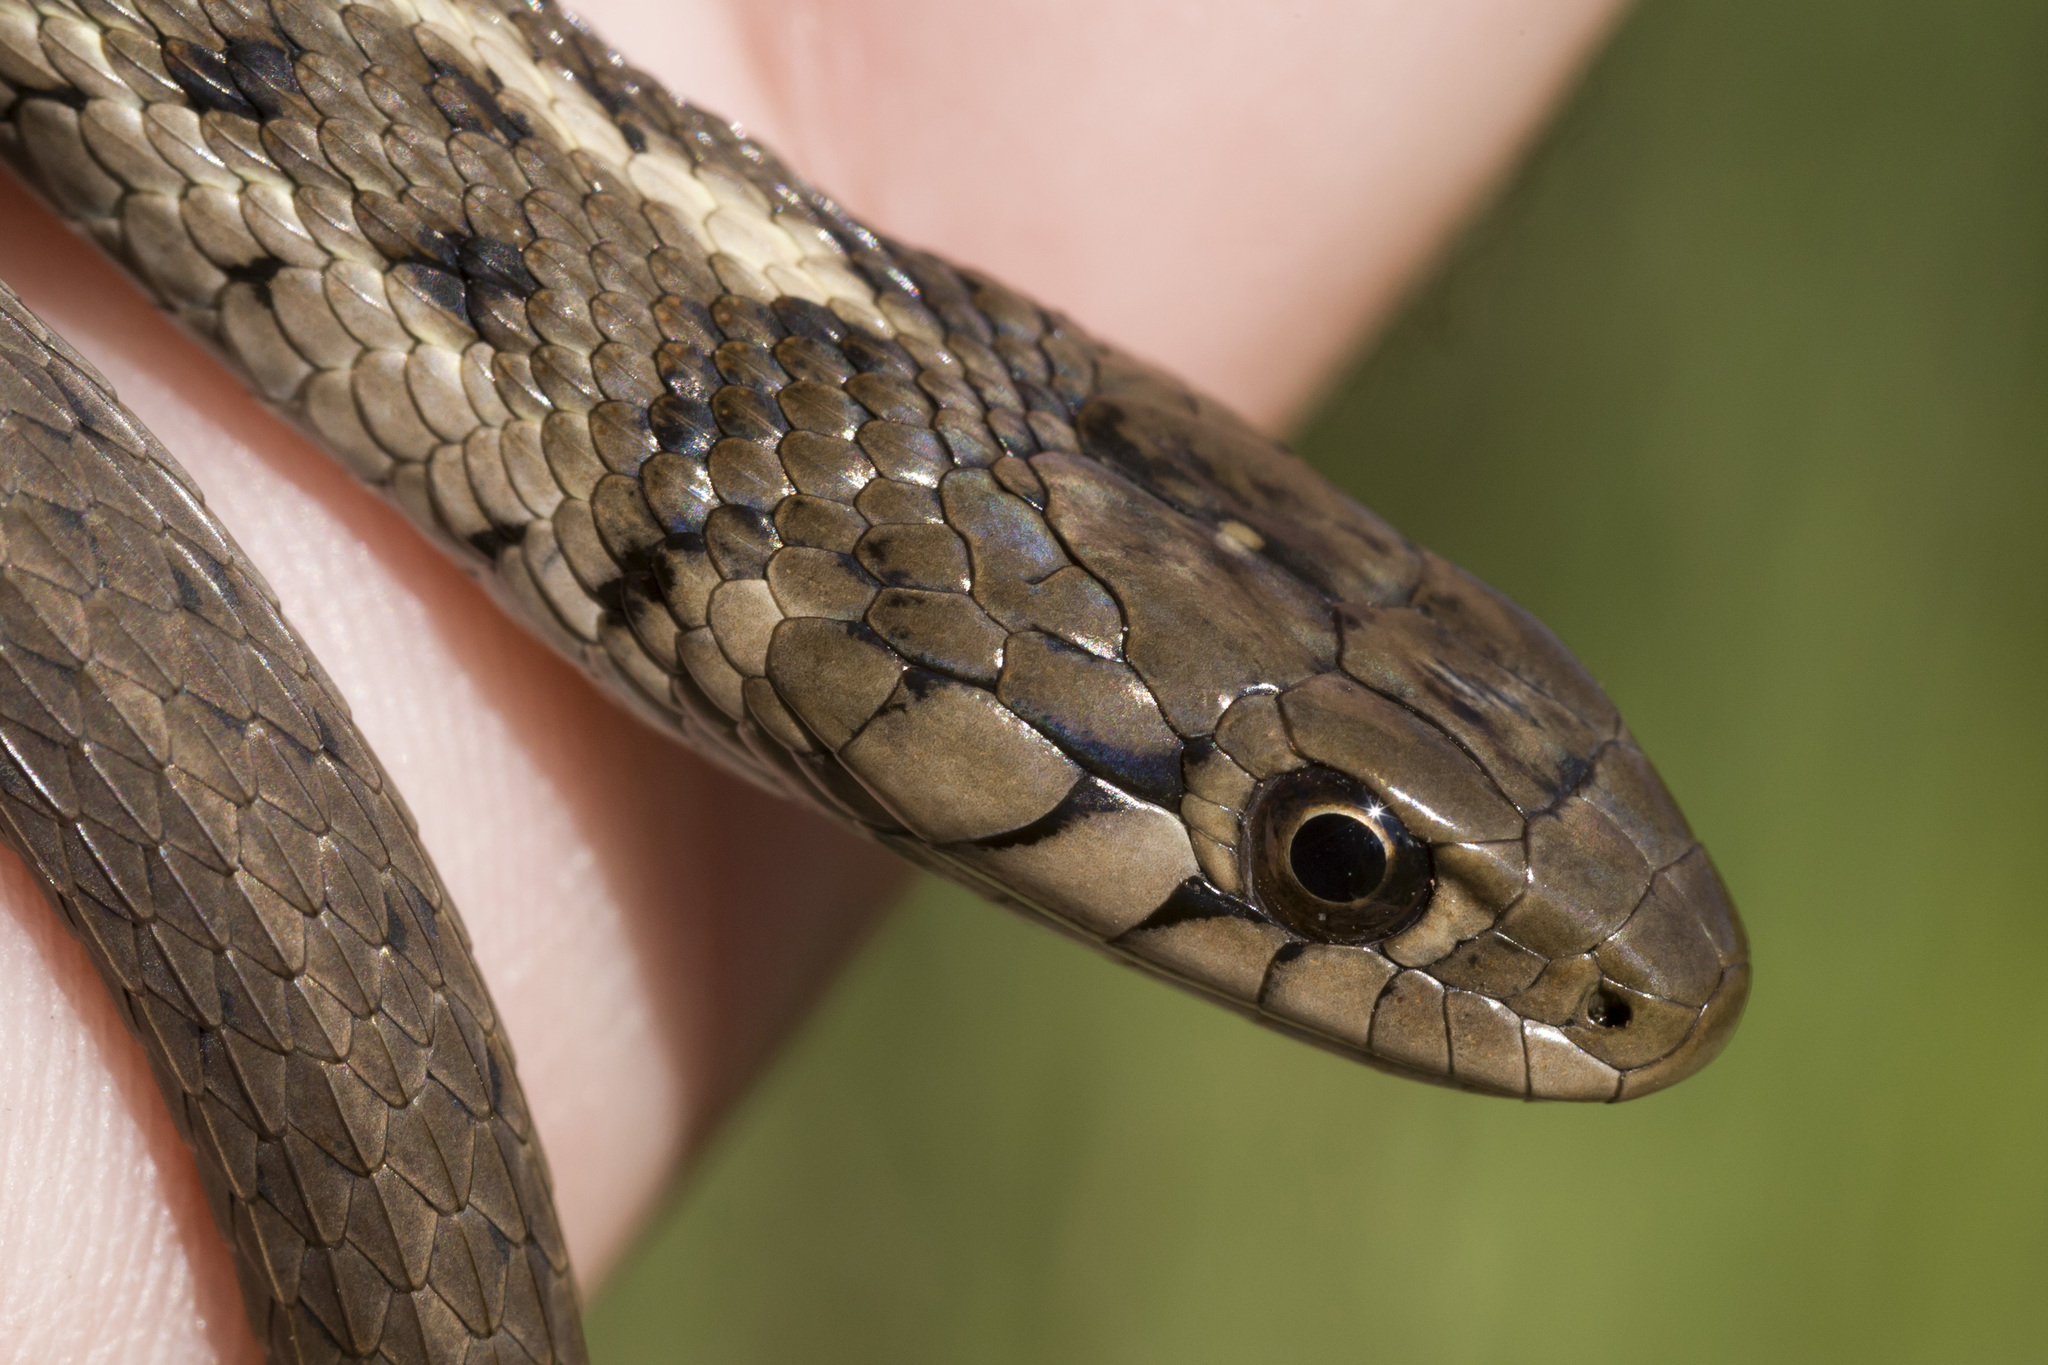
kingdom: Animalia
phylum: Chordata
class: Squamata
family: Colubridae
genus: Thamnophis
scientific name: Thamnophis elegans
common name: Western terrestrial garter snake
